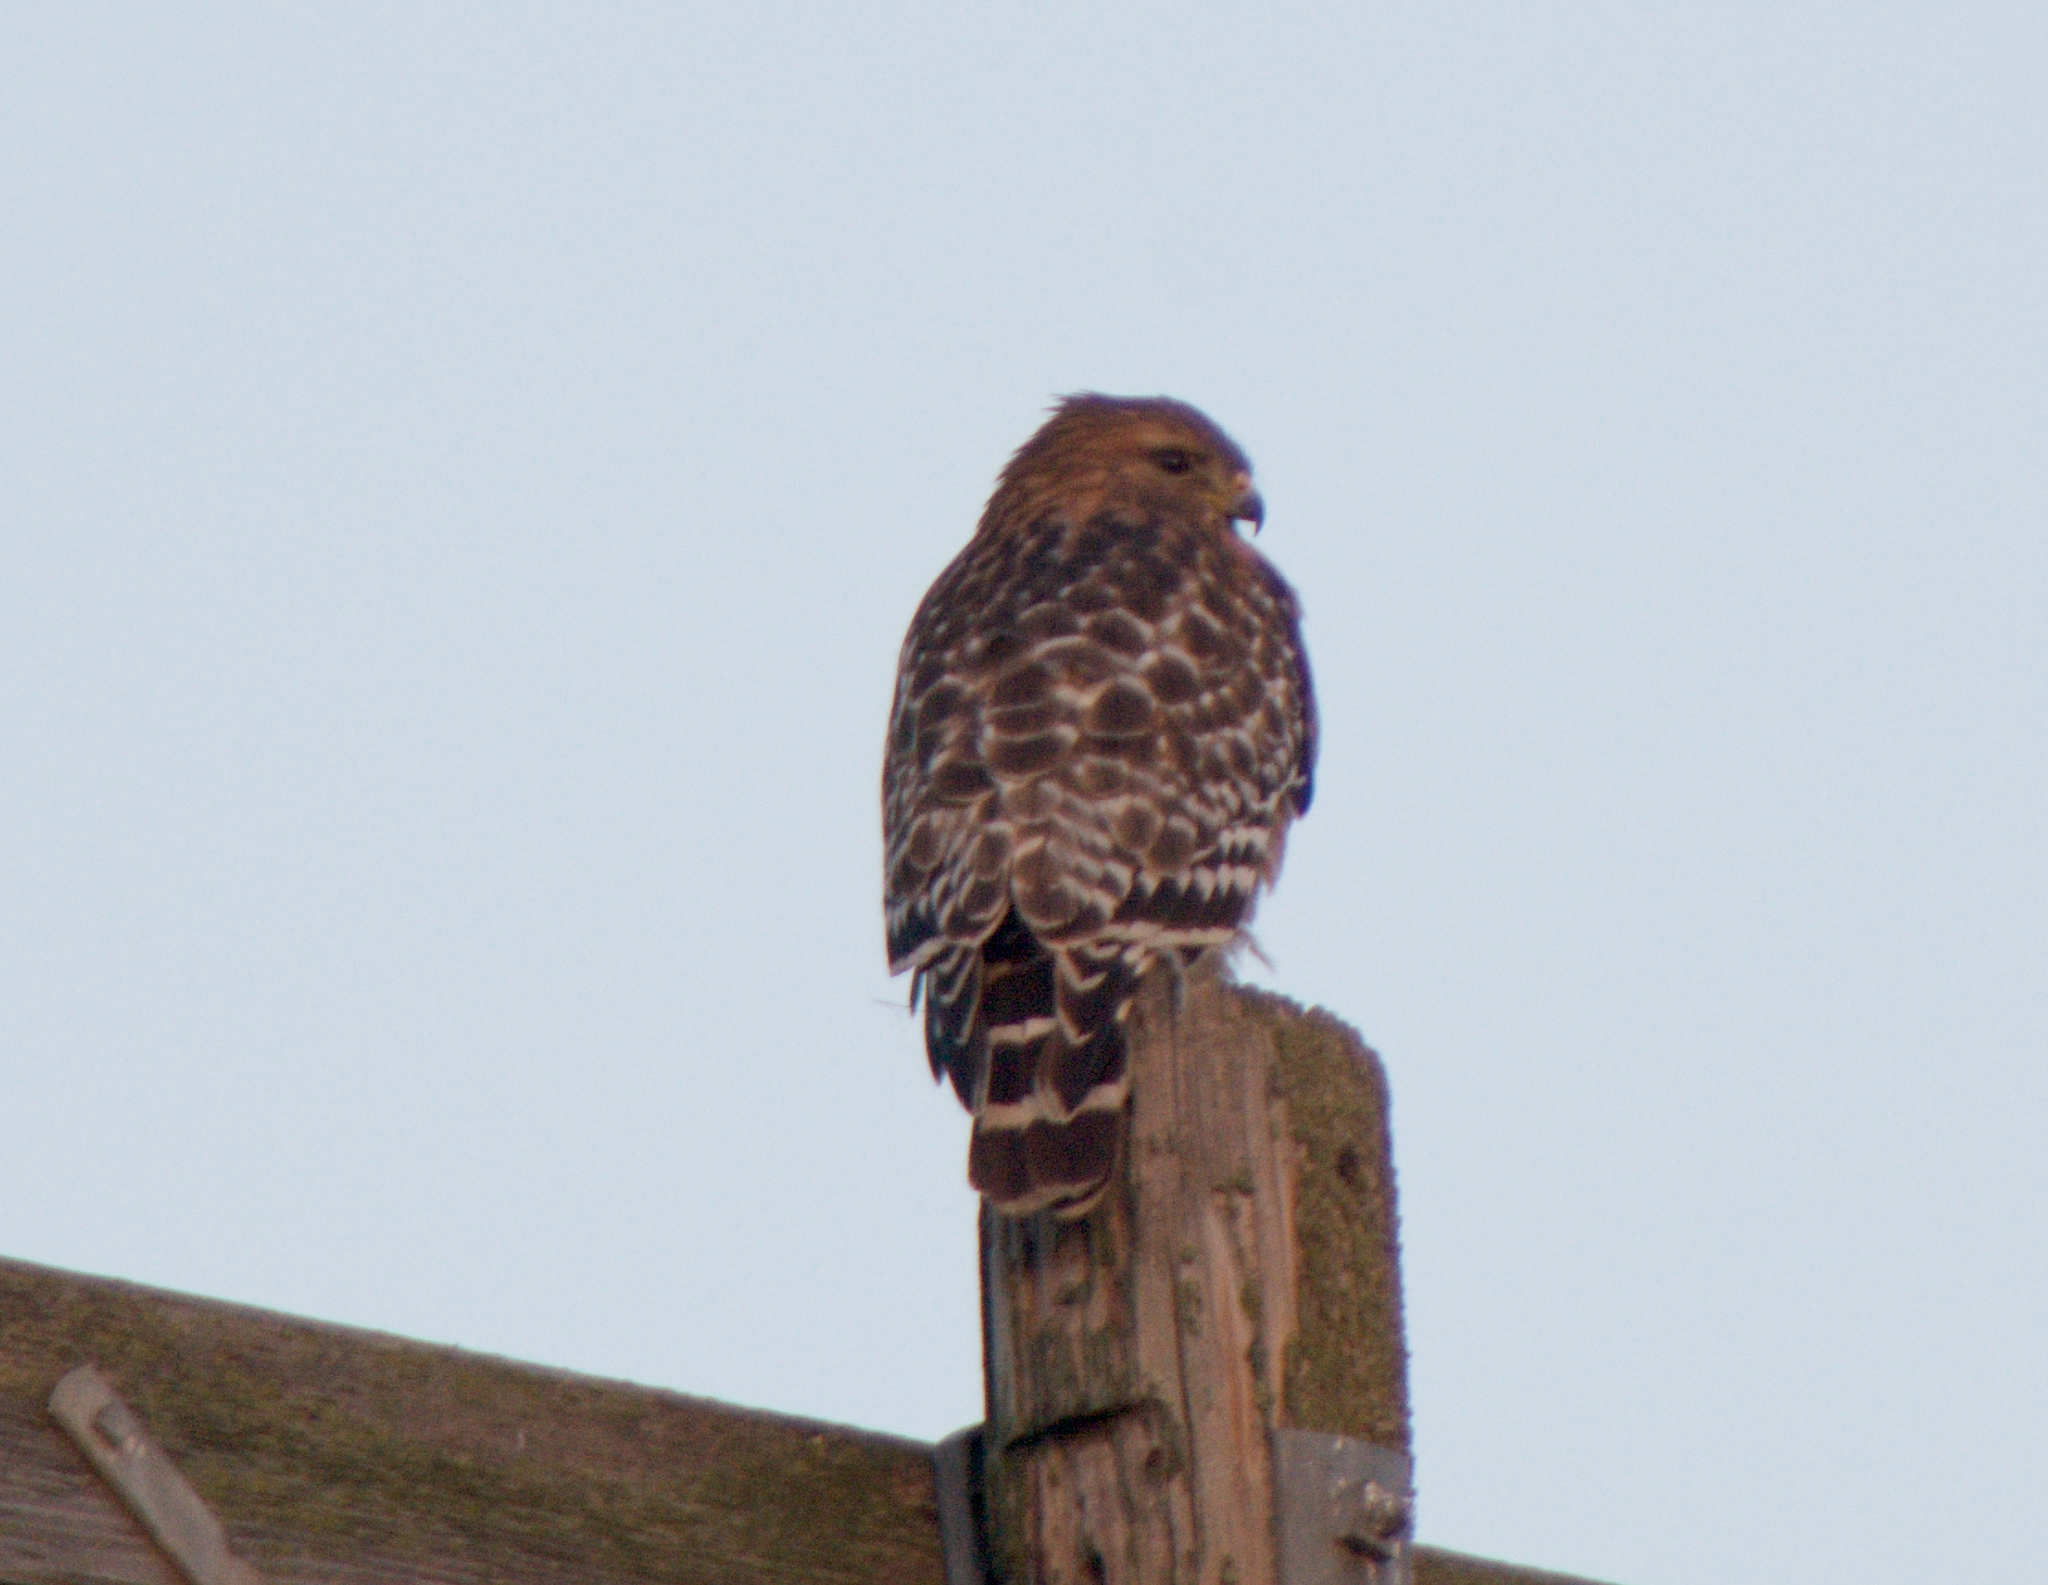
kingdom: Animalia
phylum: Chordata
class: Aves
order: Accipitriformes
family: Accipitridae
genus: Buteo
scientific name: Buteo lineatus
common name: Red-shouldered hawk
